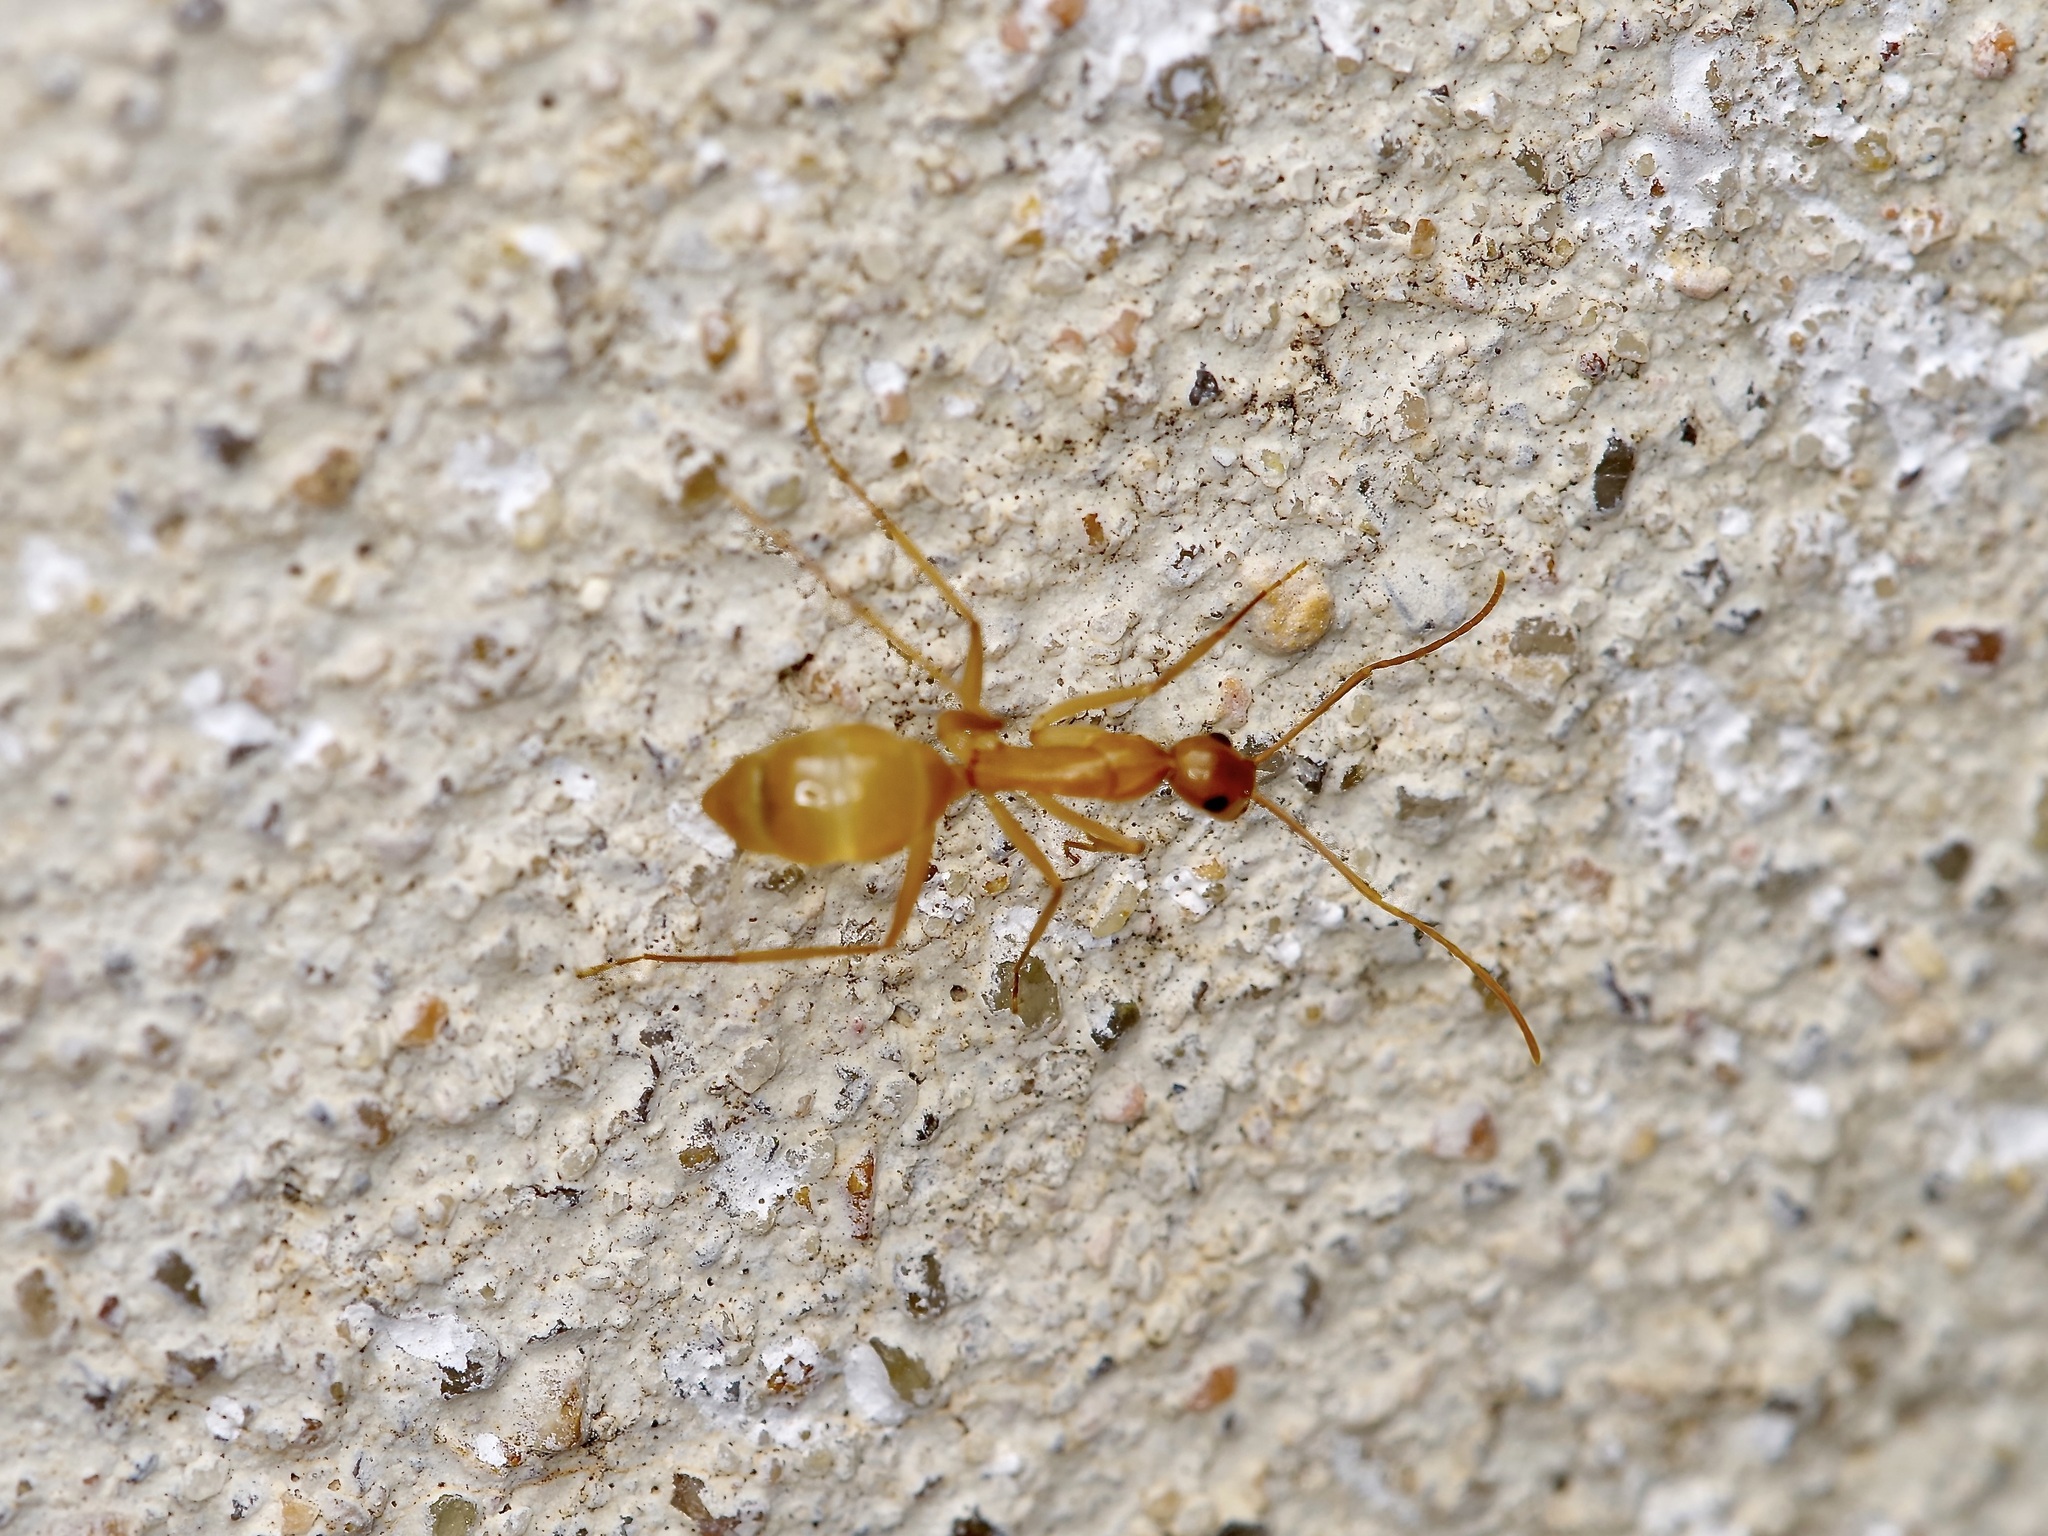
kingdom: Animalia
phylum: Arthropoda
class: Insecta
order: Hymenoptera
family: Formicidae
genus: Camponotus
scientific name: Camponotus festinatus
